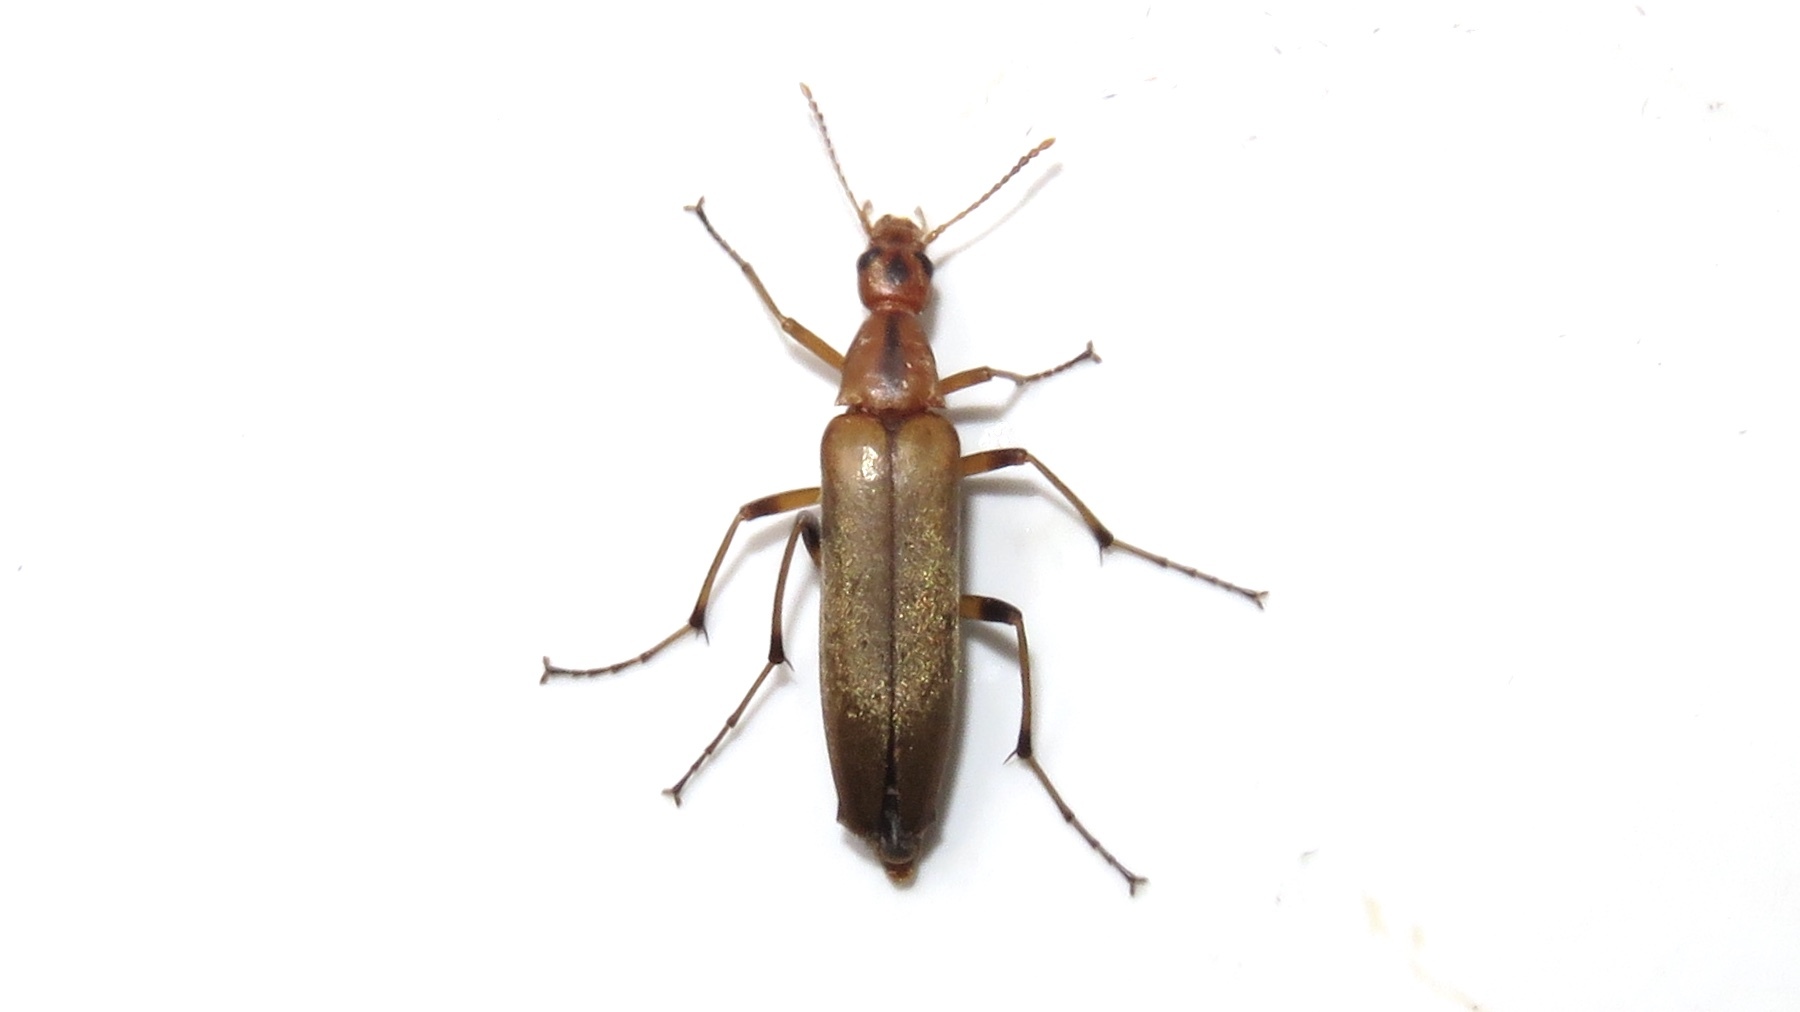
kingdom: Animalia
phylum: Arthropoda
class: Insecta
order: Coleoptera
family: Stenotrachelidae
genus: Cephaloon
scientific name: Cephaloon lepturides
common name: False leptura beetle
